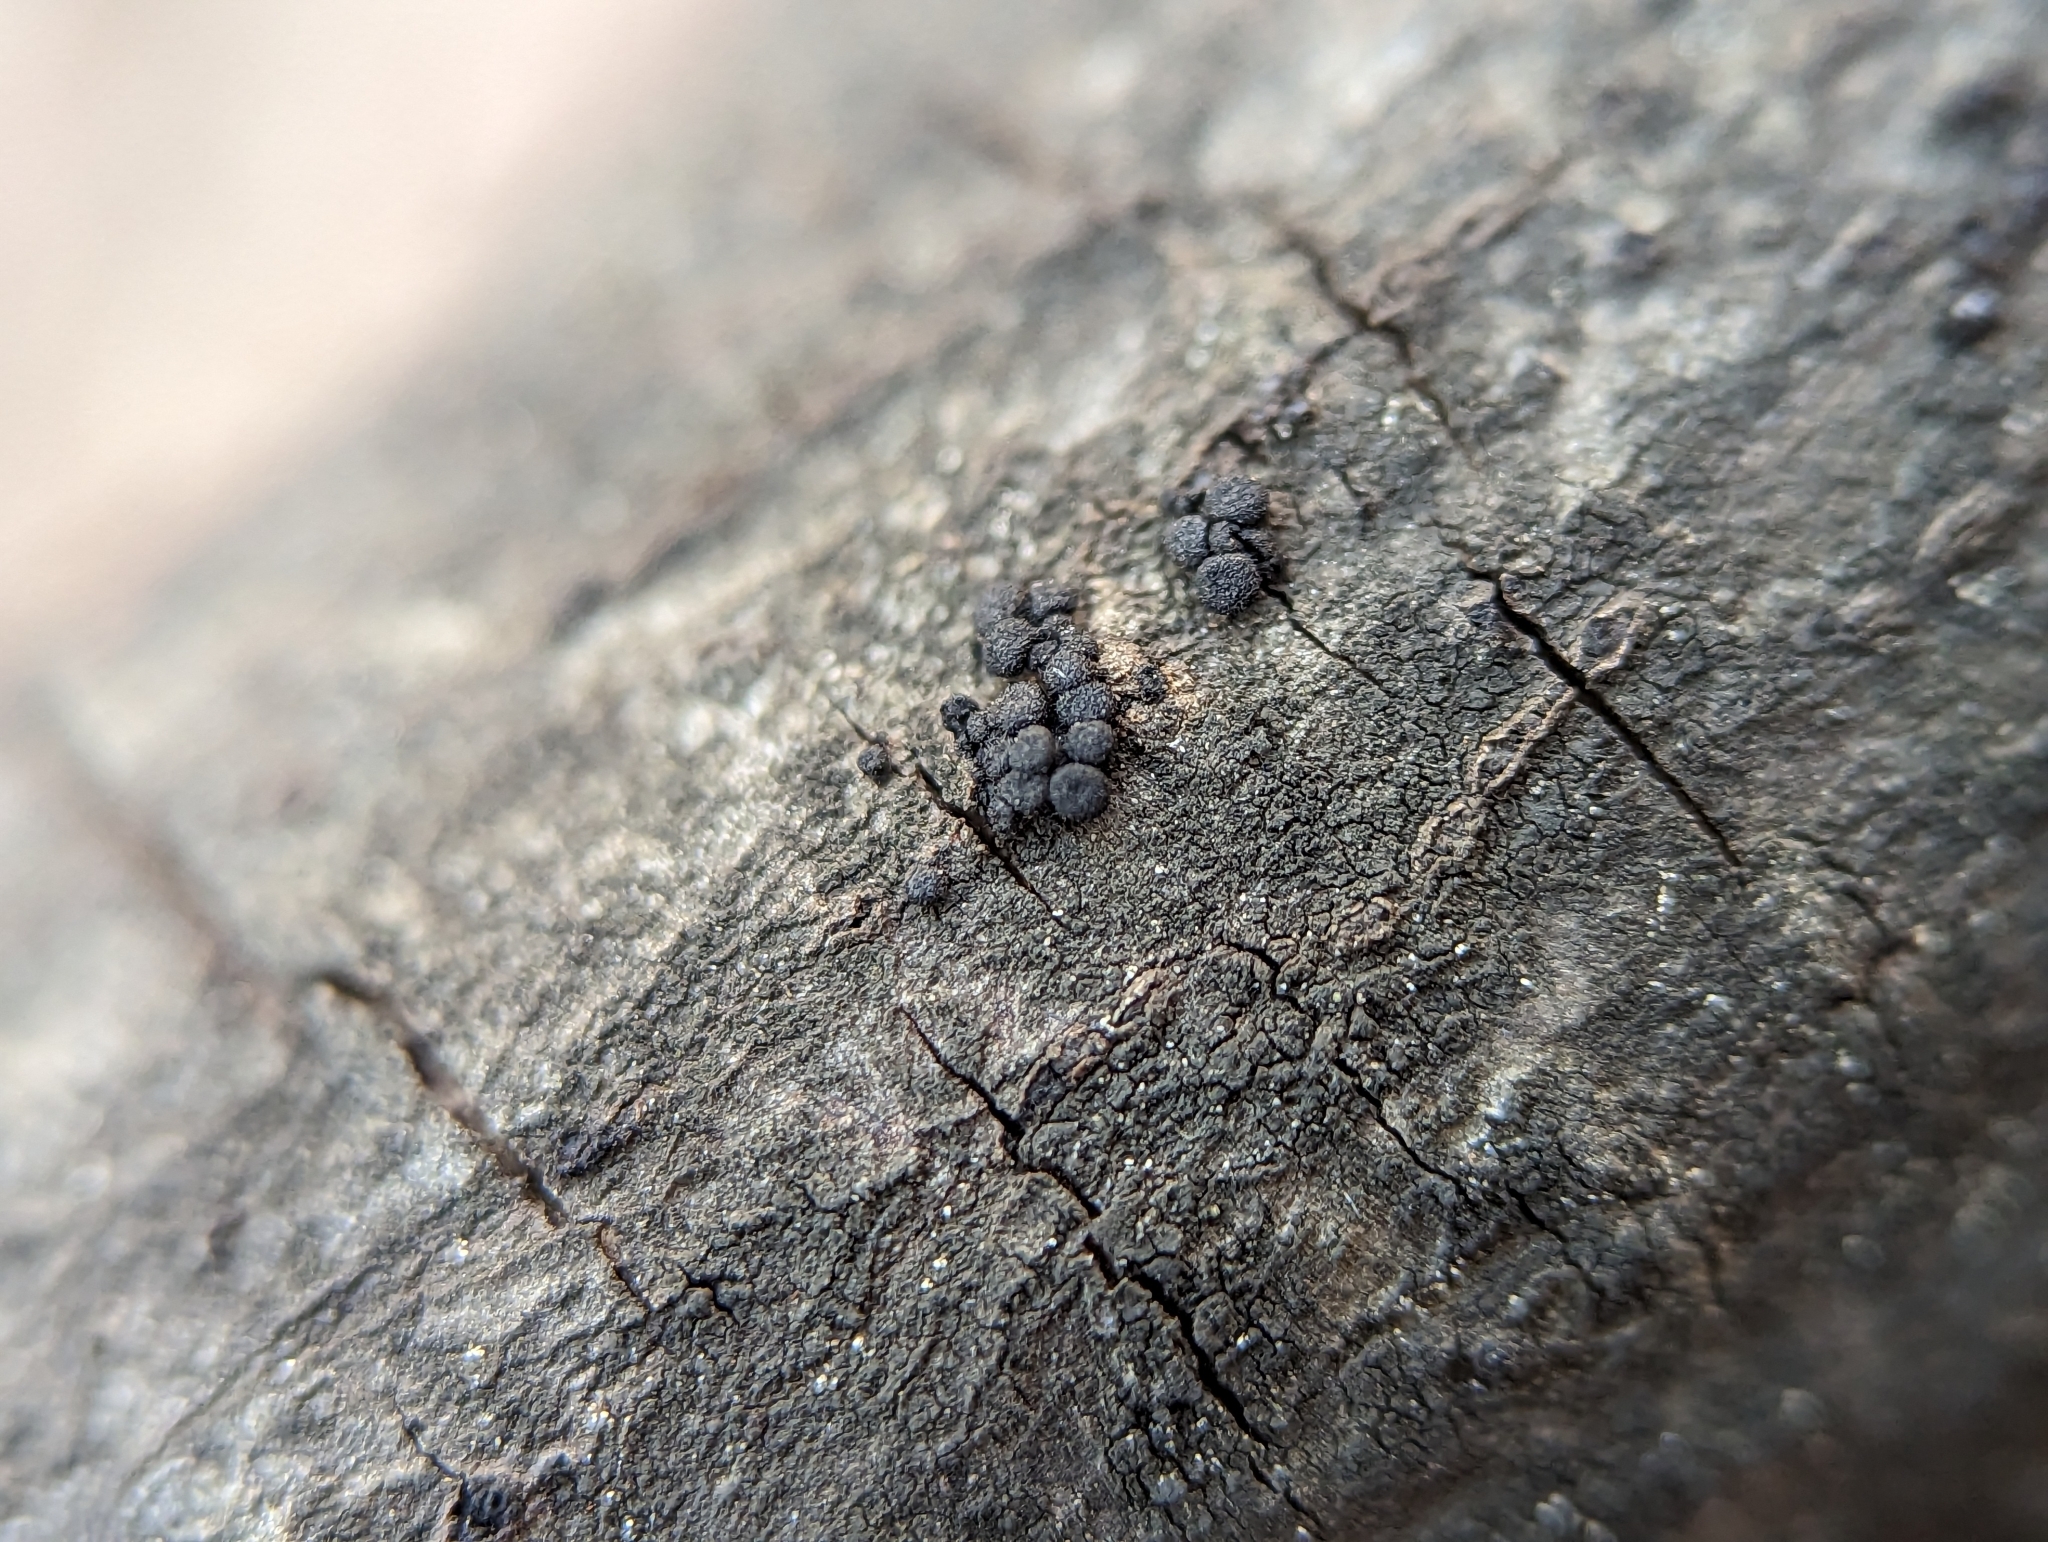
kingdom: Fungi
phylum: Ascomycota
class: Sordariomycetes
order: Coronophorales
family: Nitschkiaceae
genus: Fracchiaea
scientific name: Fracchiaea broomeana
